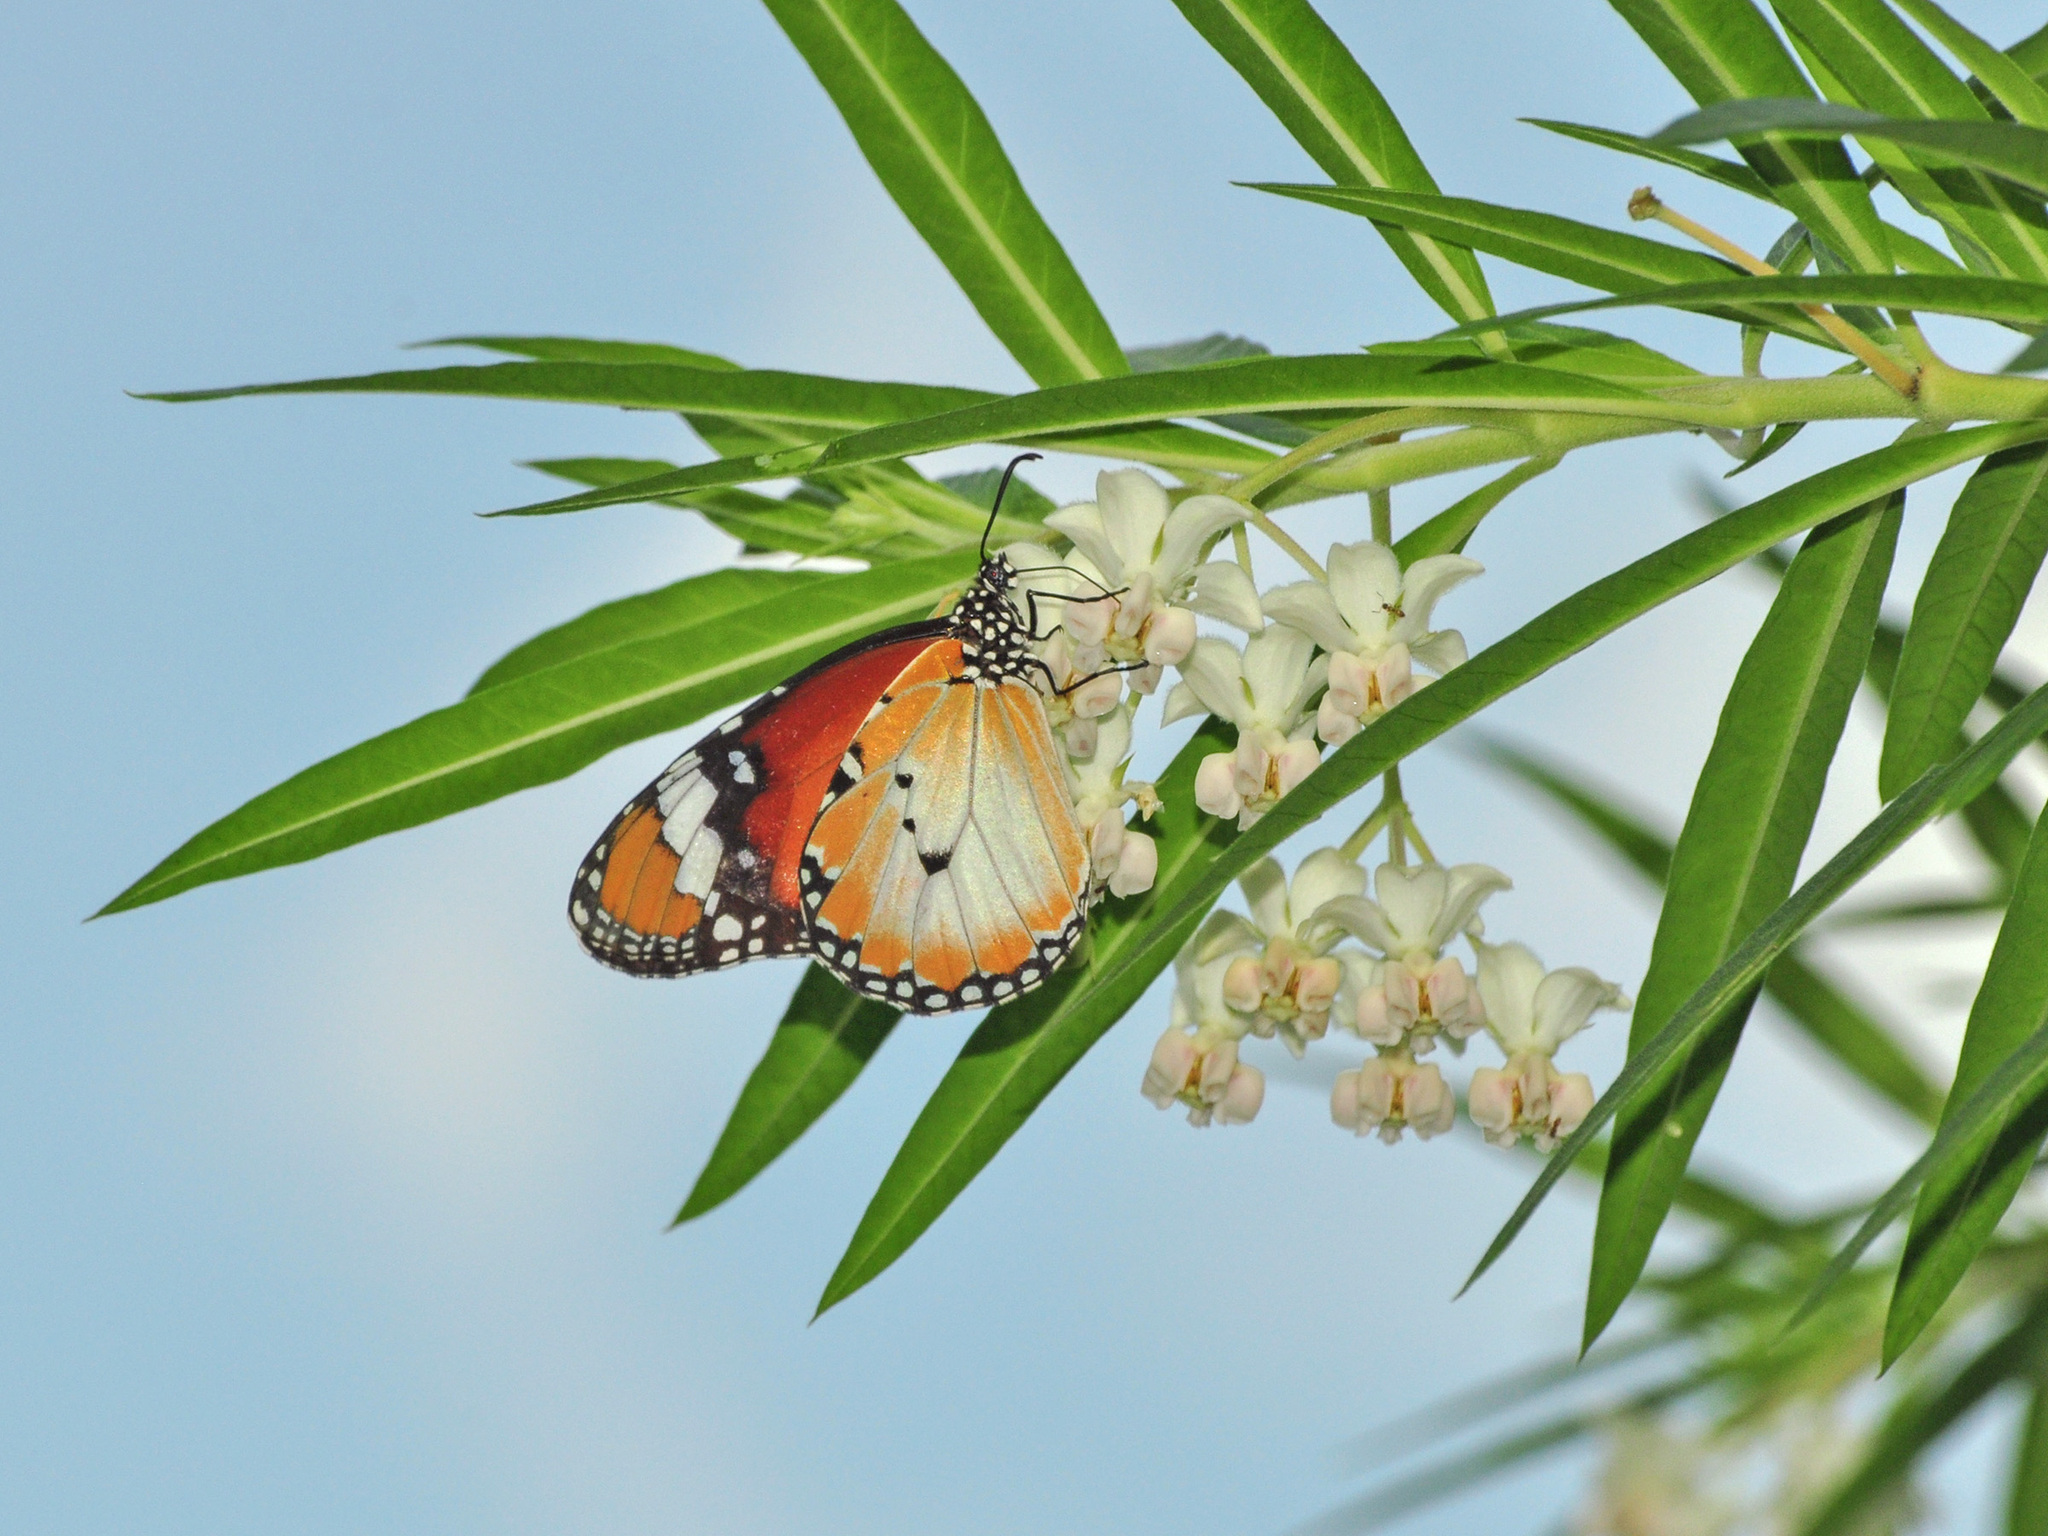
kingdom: Animalia
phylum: Arthropoda
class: Insecta
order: Lepidoptera
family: Nymphalidae
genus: Danaus
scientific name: Danaus chrysippus
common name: Plain tiger
